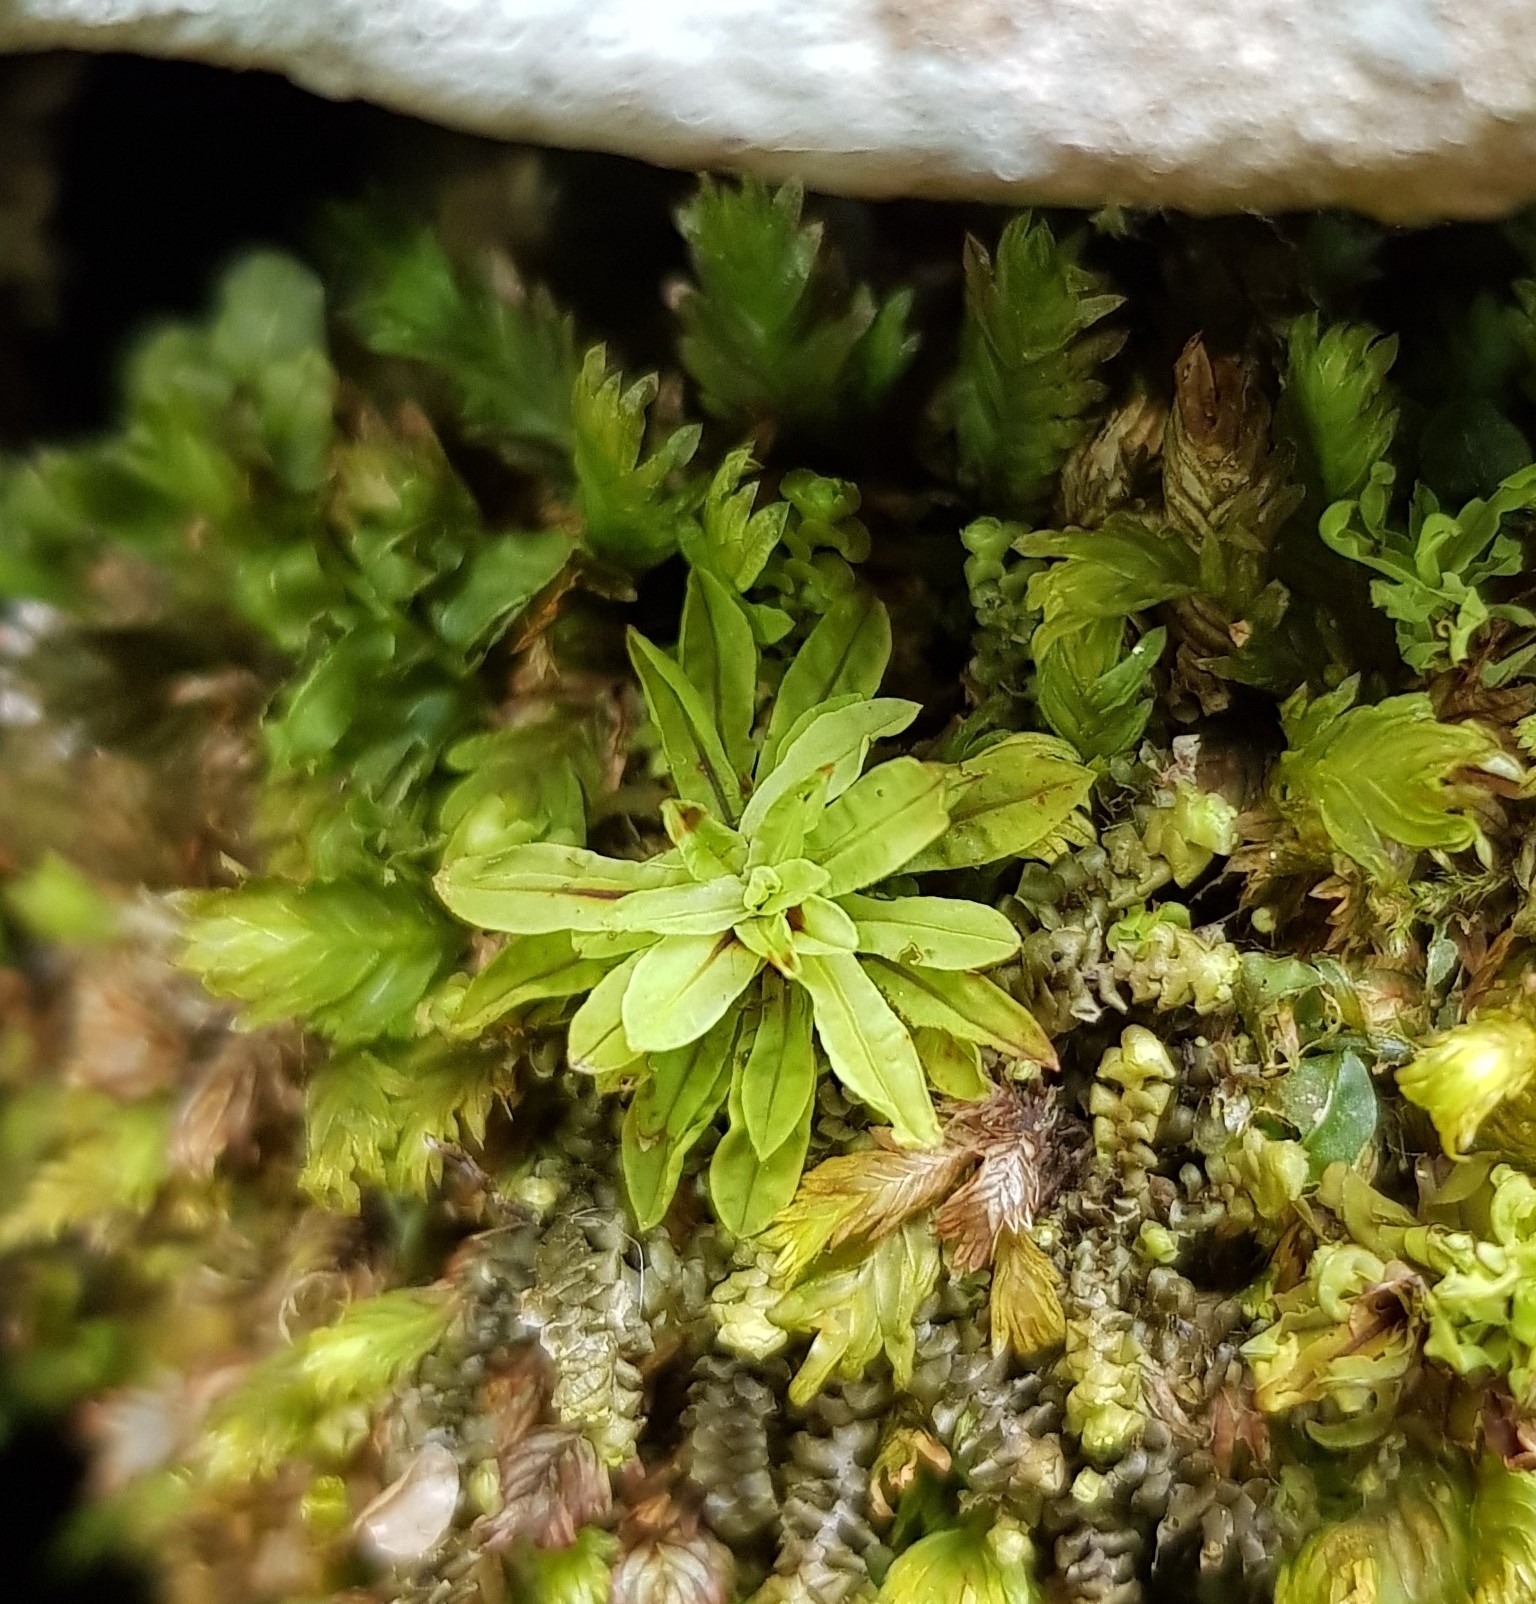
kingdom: Plantae
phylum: Bryophyta
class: Bryopsida
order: Encalyptales
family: Encalyptaceae
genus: Encalypta
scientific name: Encalypta streptocarpa
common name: Spiral extinguisher-moss
